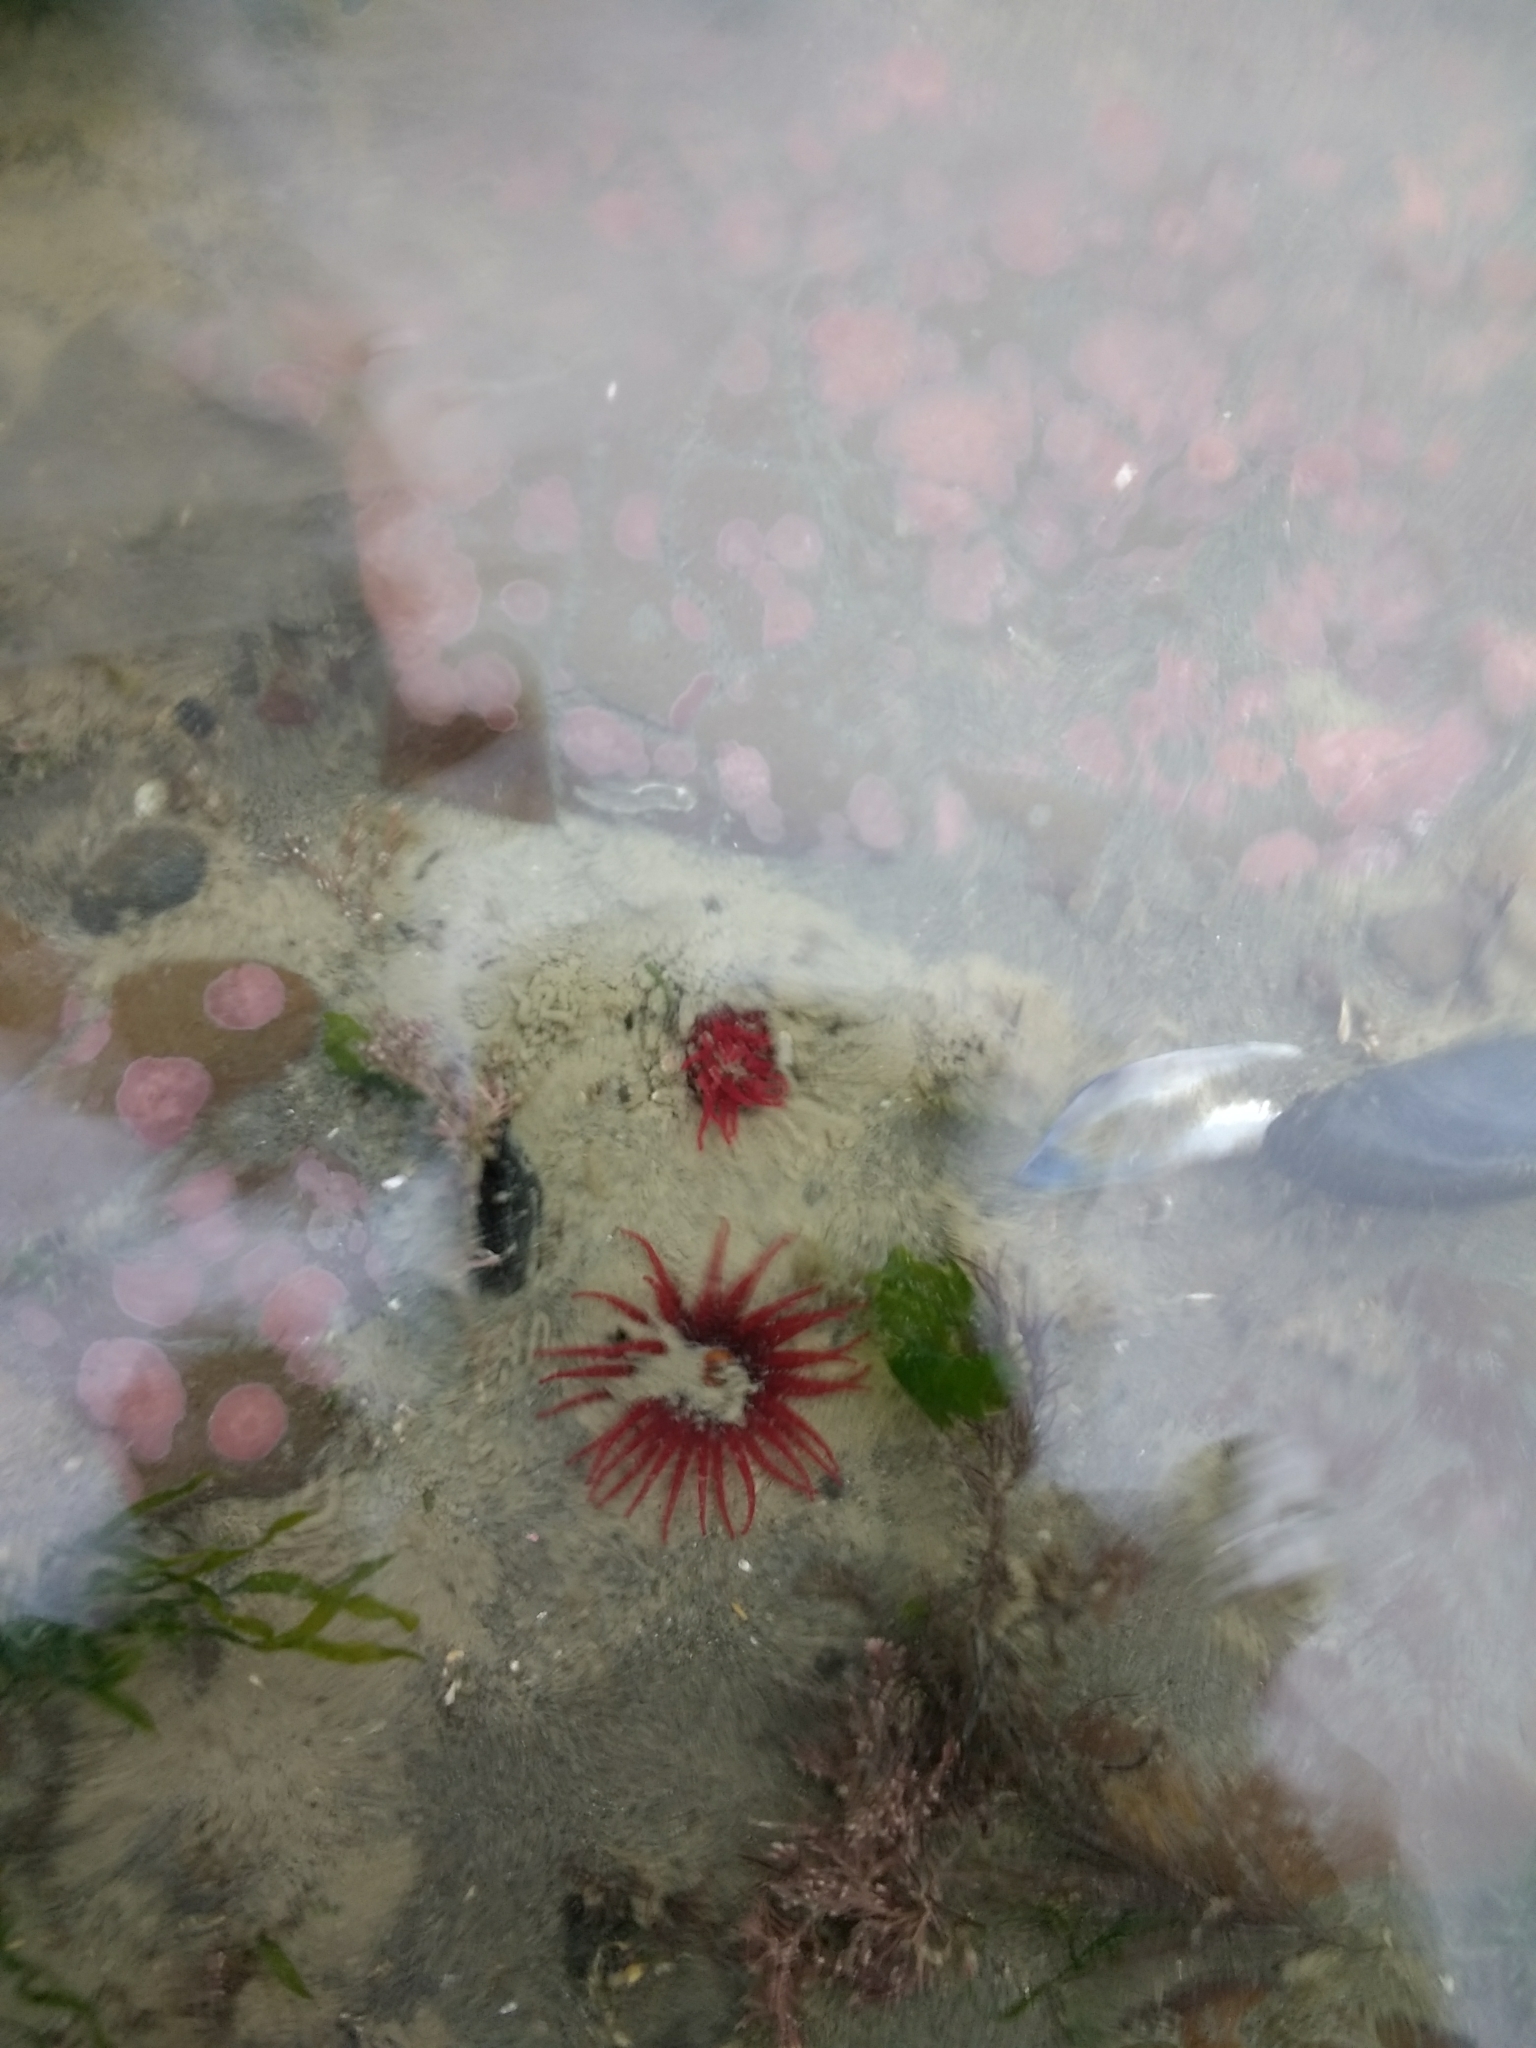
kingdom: Animalia
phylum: Cnidaria
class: Anthozoa
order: Actiniaria
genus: Paractis
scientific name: Paractis impatiens
